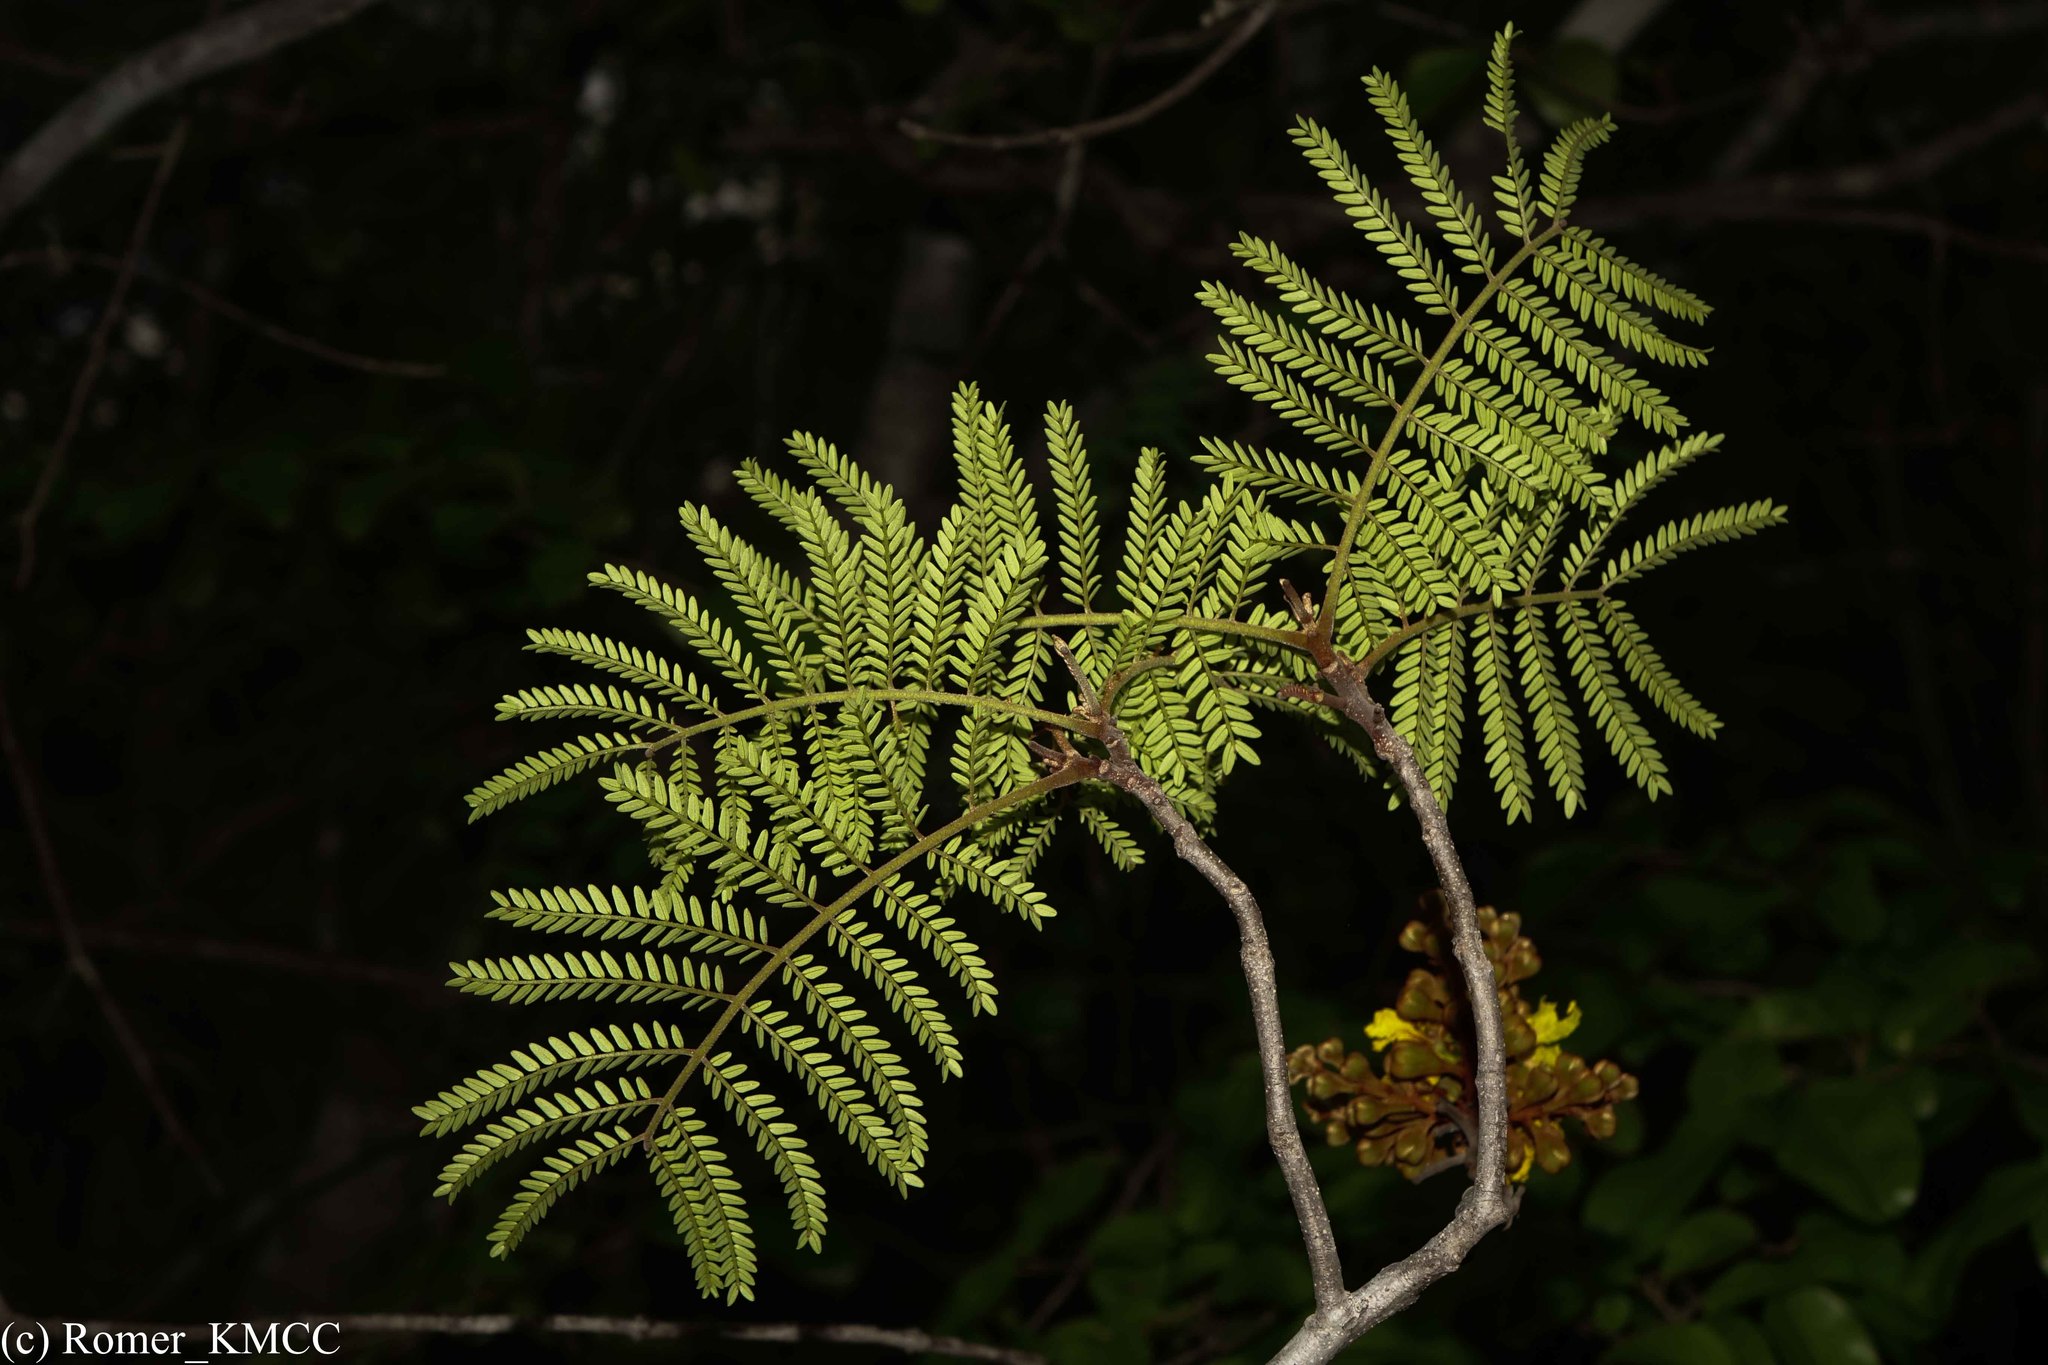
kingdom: Plantae
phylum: Tracheophyta
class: Magnoliopsida
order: Fabales
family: Fabaceae
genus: Bussea
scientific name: Bussea perrieri
